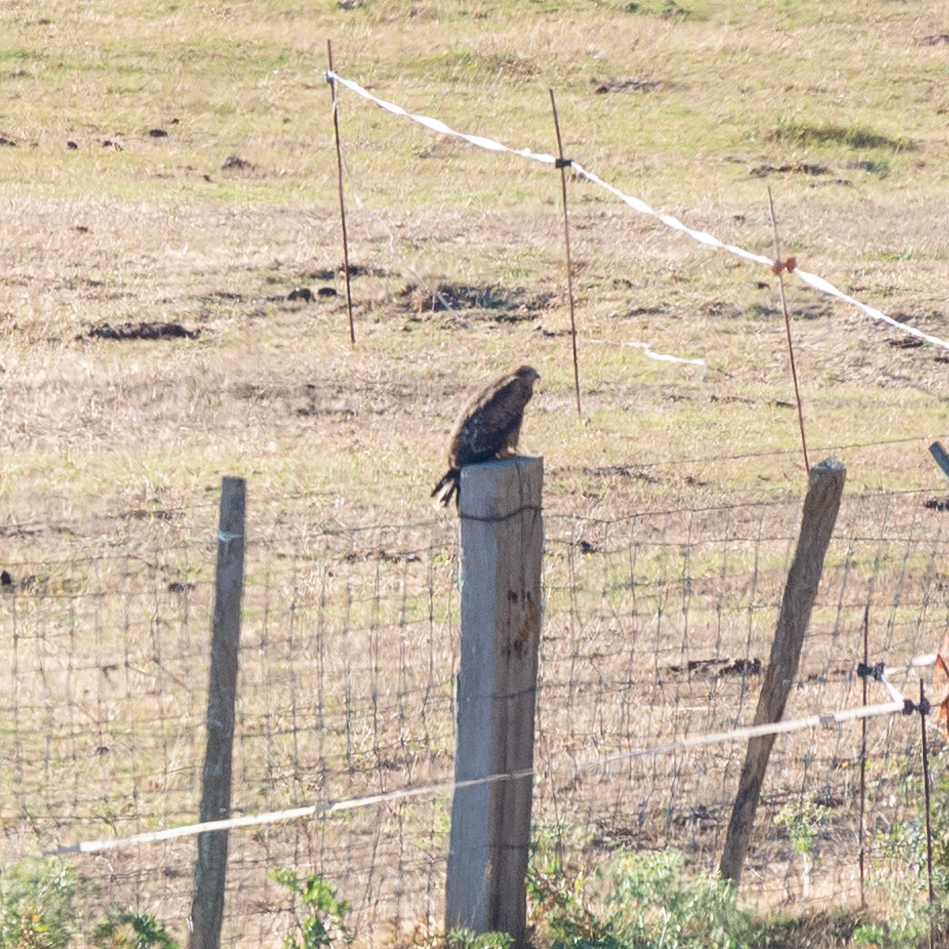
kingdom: Animalia
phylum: Chordata
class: Aves
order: Accipitriformes
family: Accipitridae
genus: Milvus
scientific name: Milvus migrans
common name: Black kite
